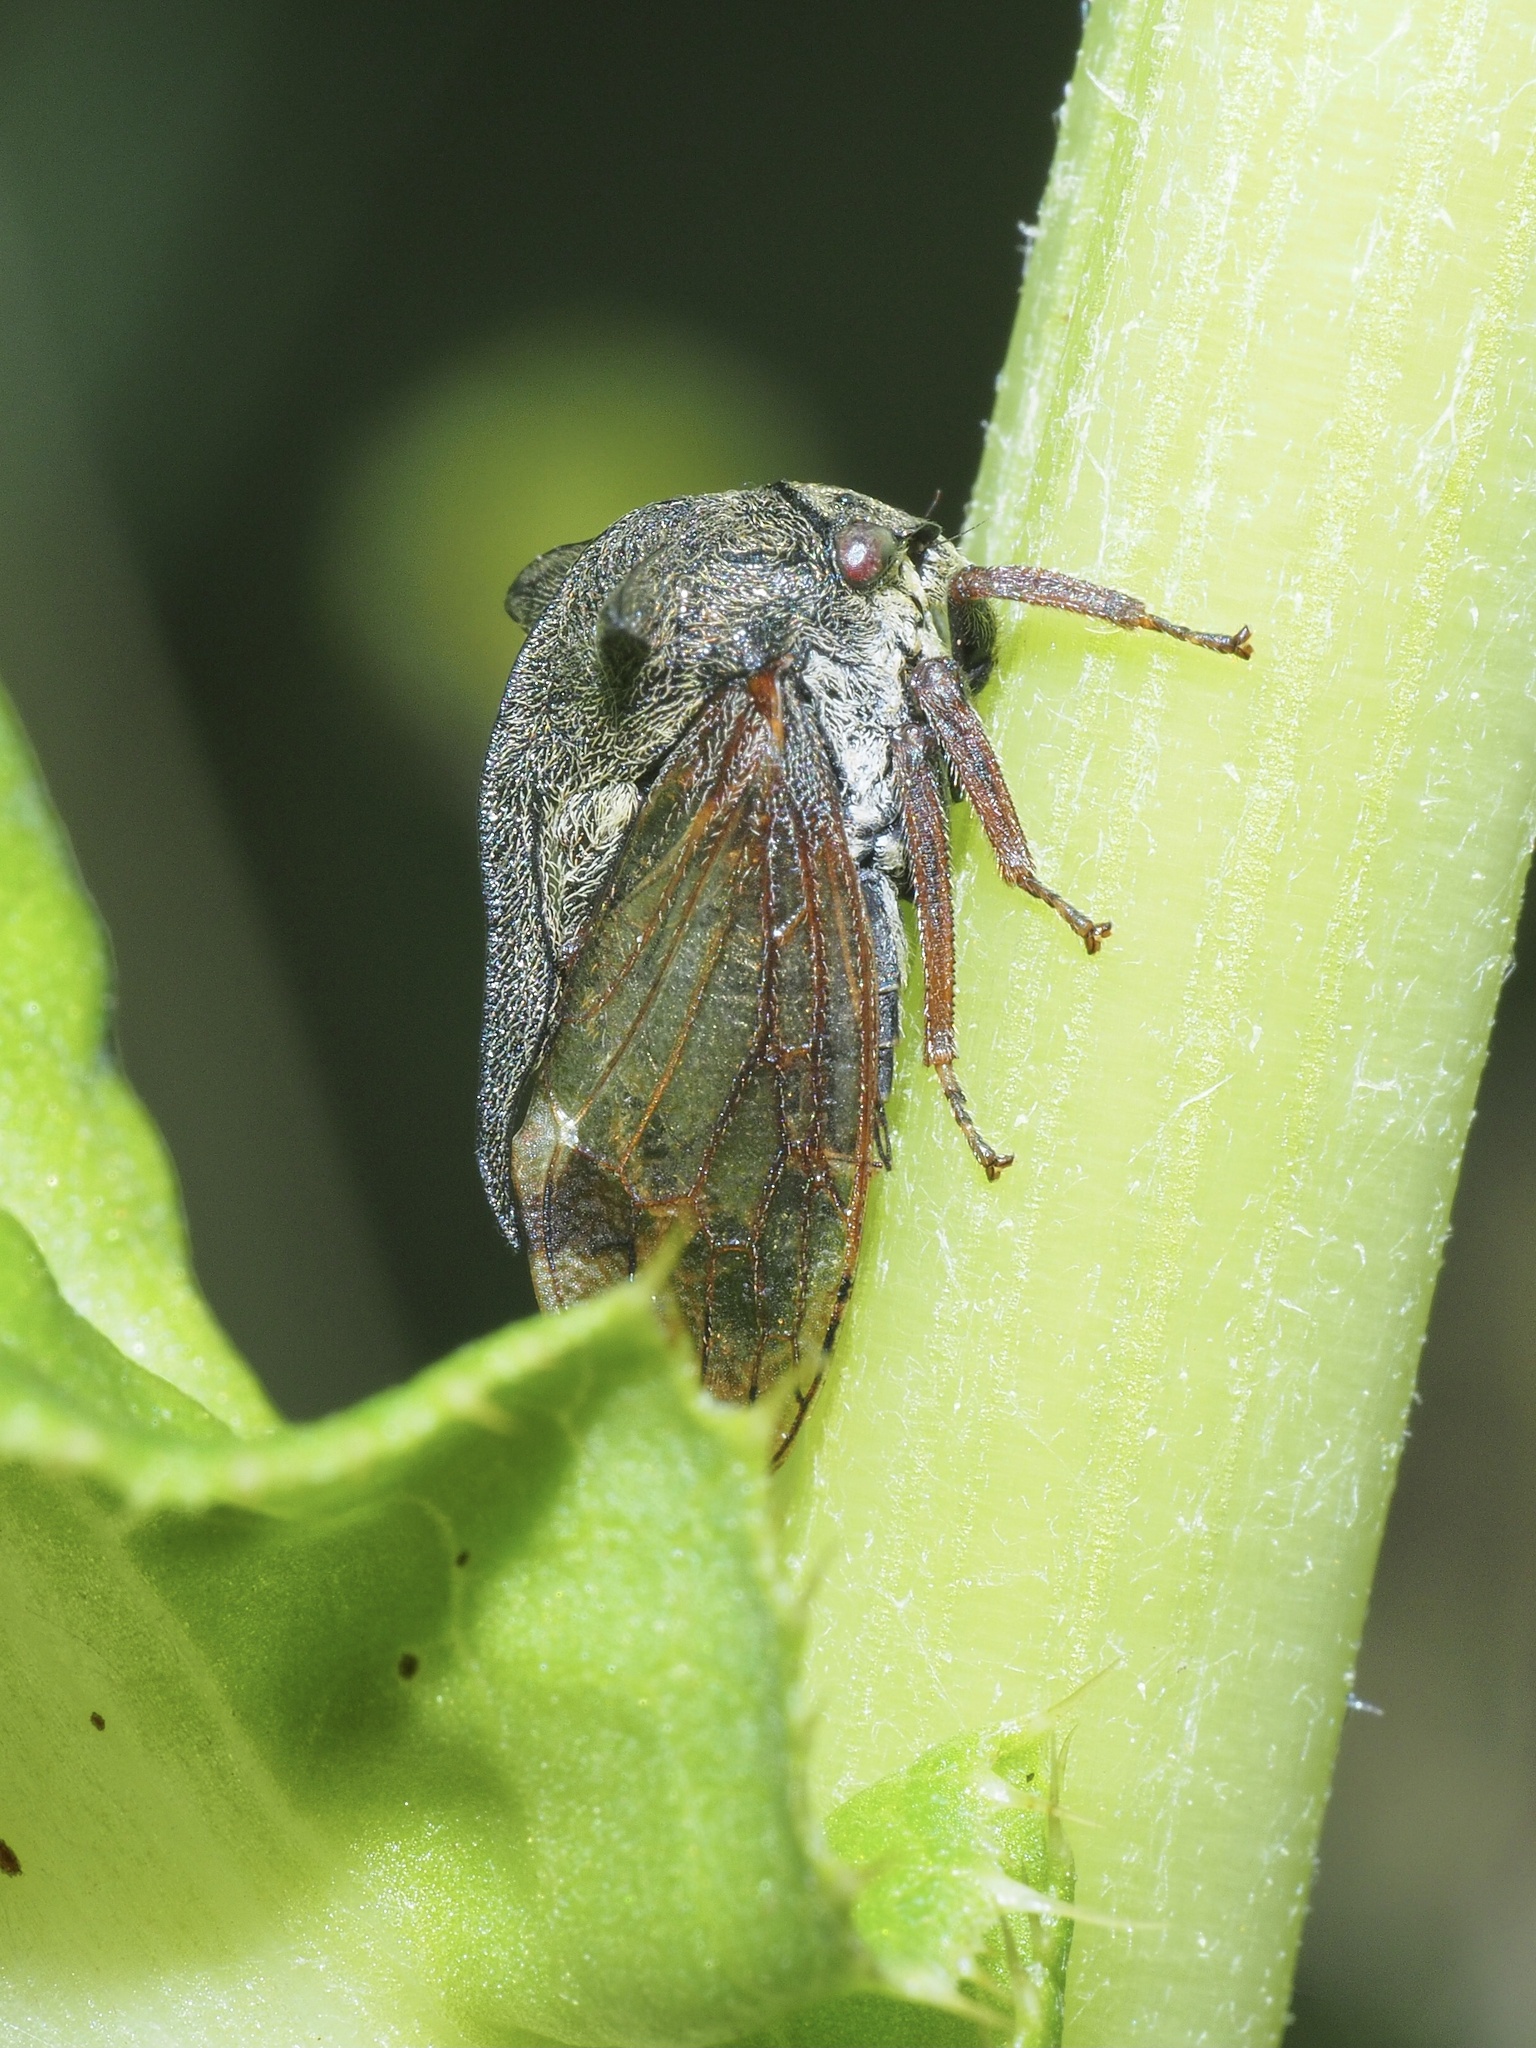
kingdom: Animalia
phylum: Arthropoda
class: Insecta
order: Hemiptera
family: Membracidae
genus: Centrotus
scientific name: Centrotus cornuta
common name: Treehopper
